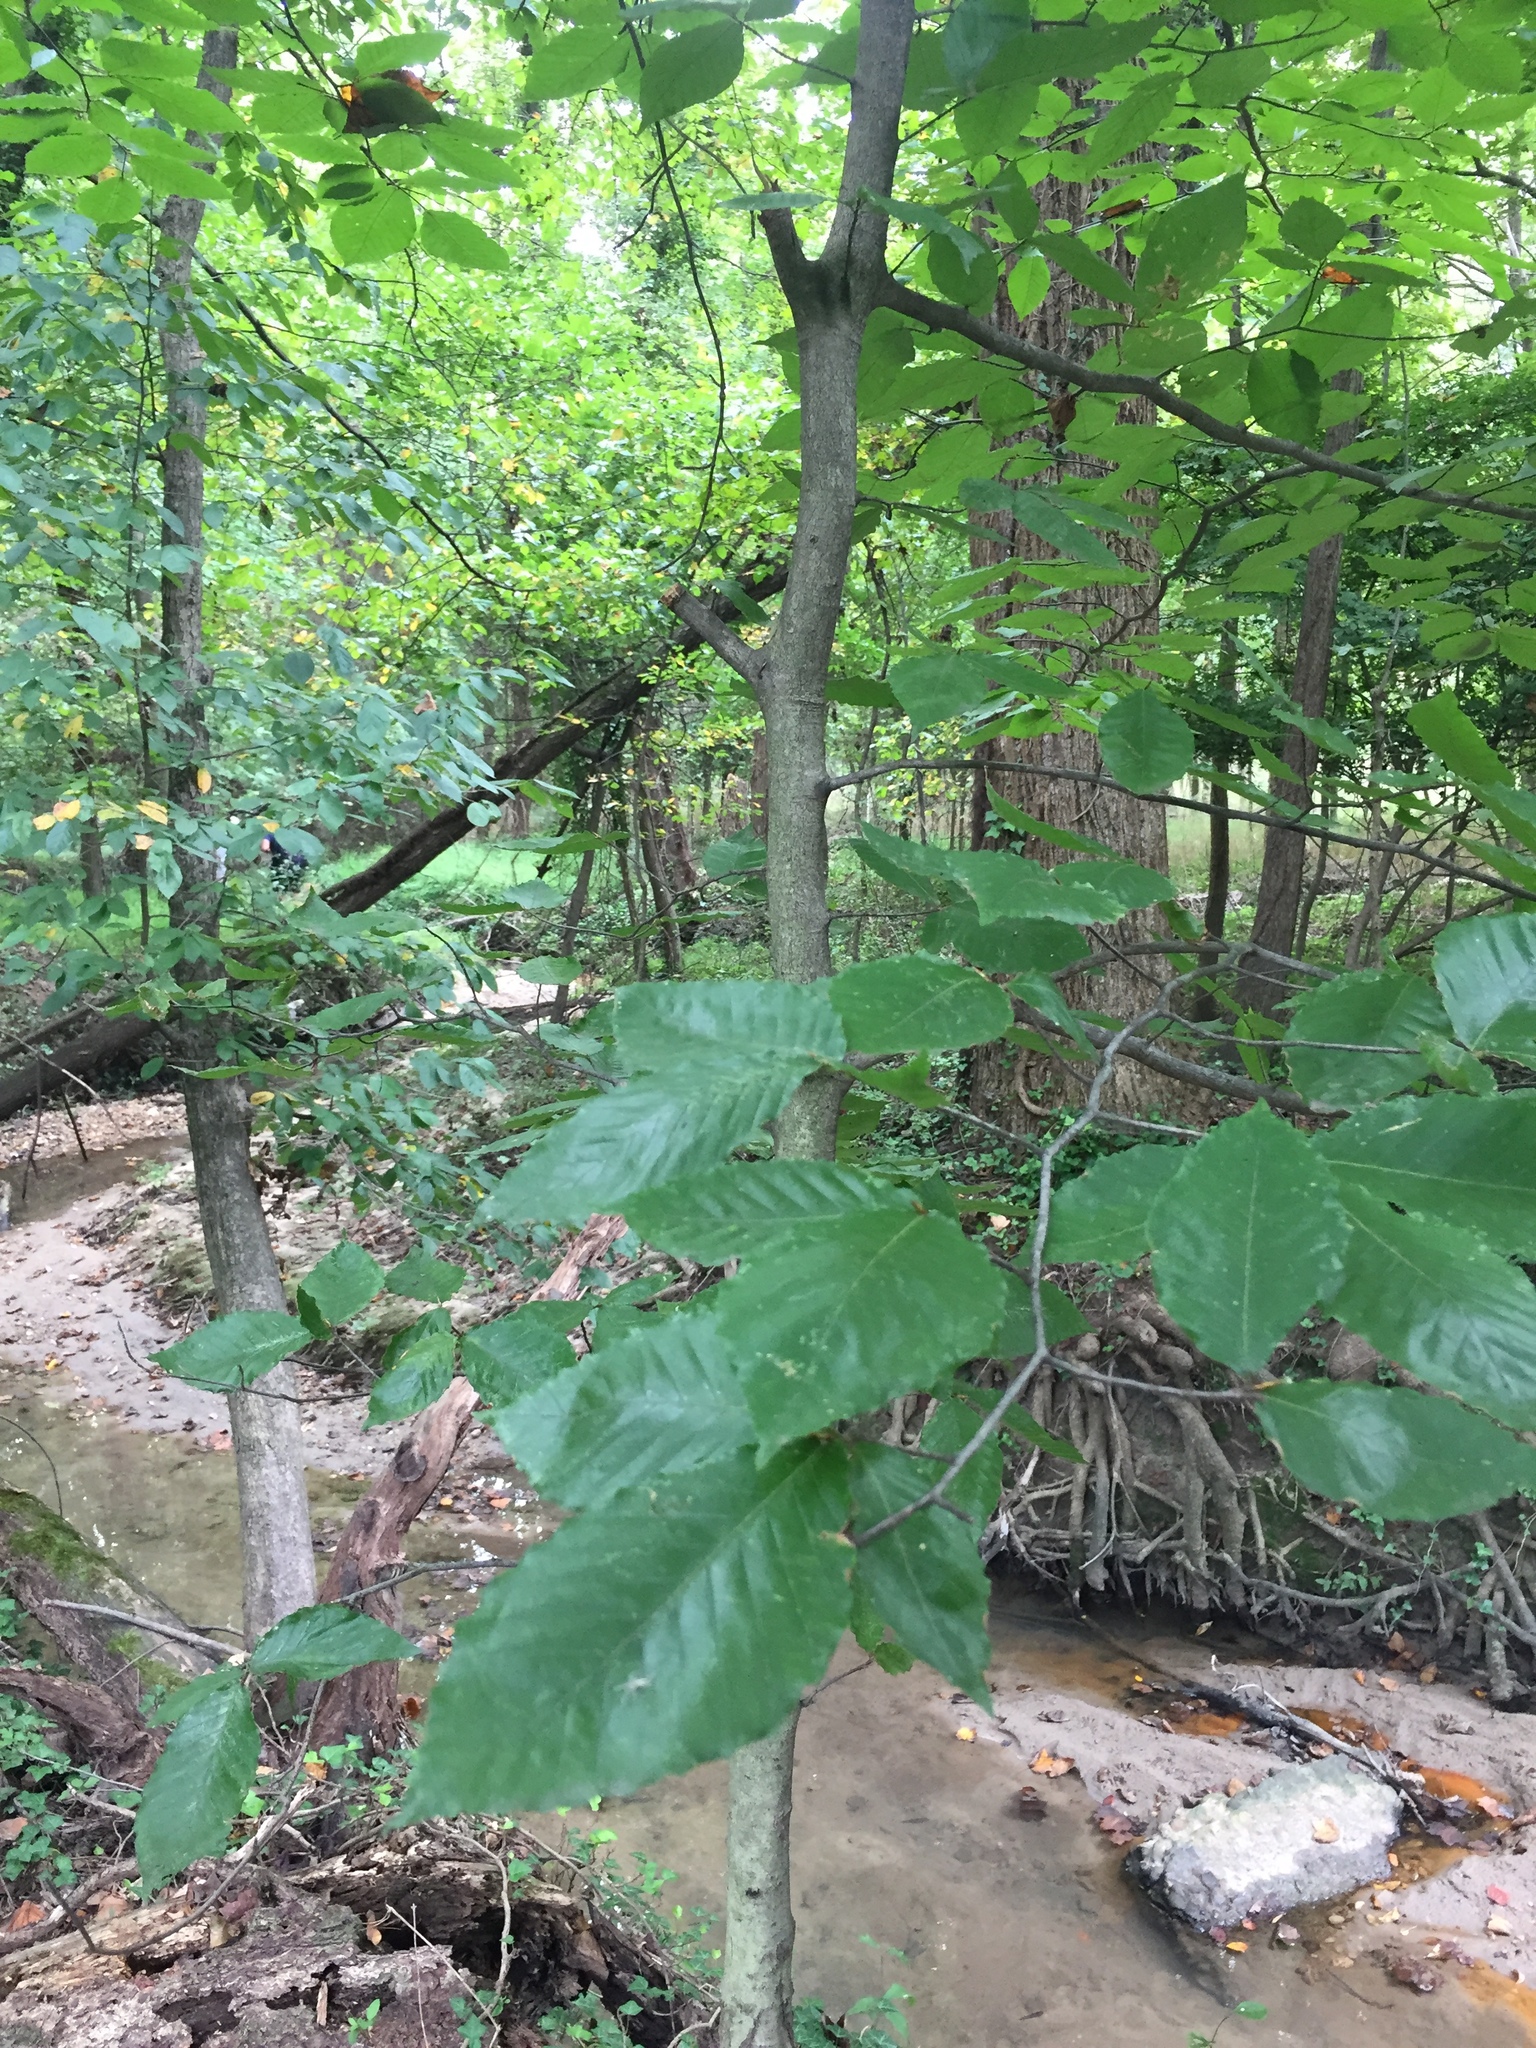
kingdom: Plantae
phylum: Tracheophyta
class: Magnoliopsida
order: Fagales
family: Fagaceae
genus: Fagus
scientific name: Fagus grandifolia
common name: American beech
